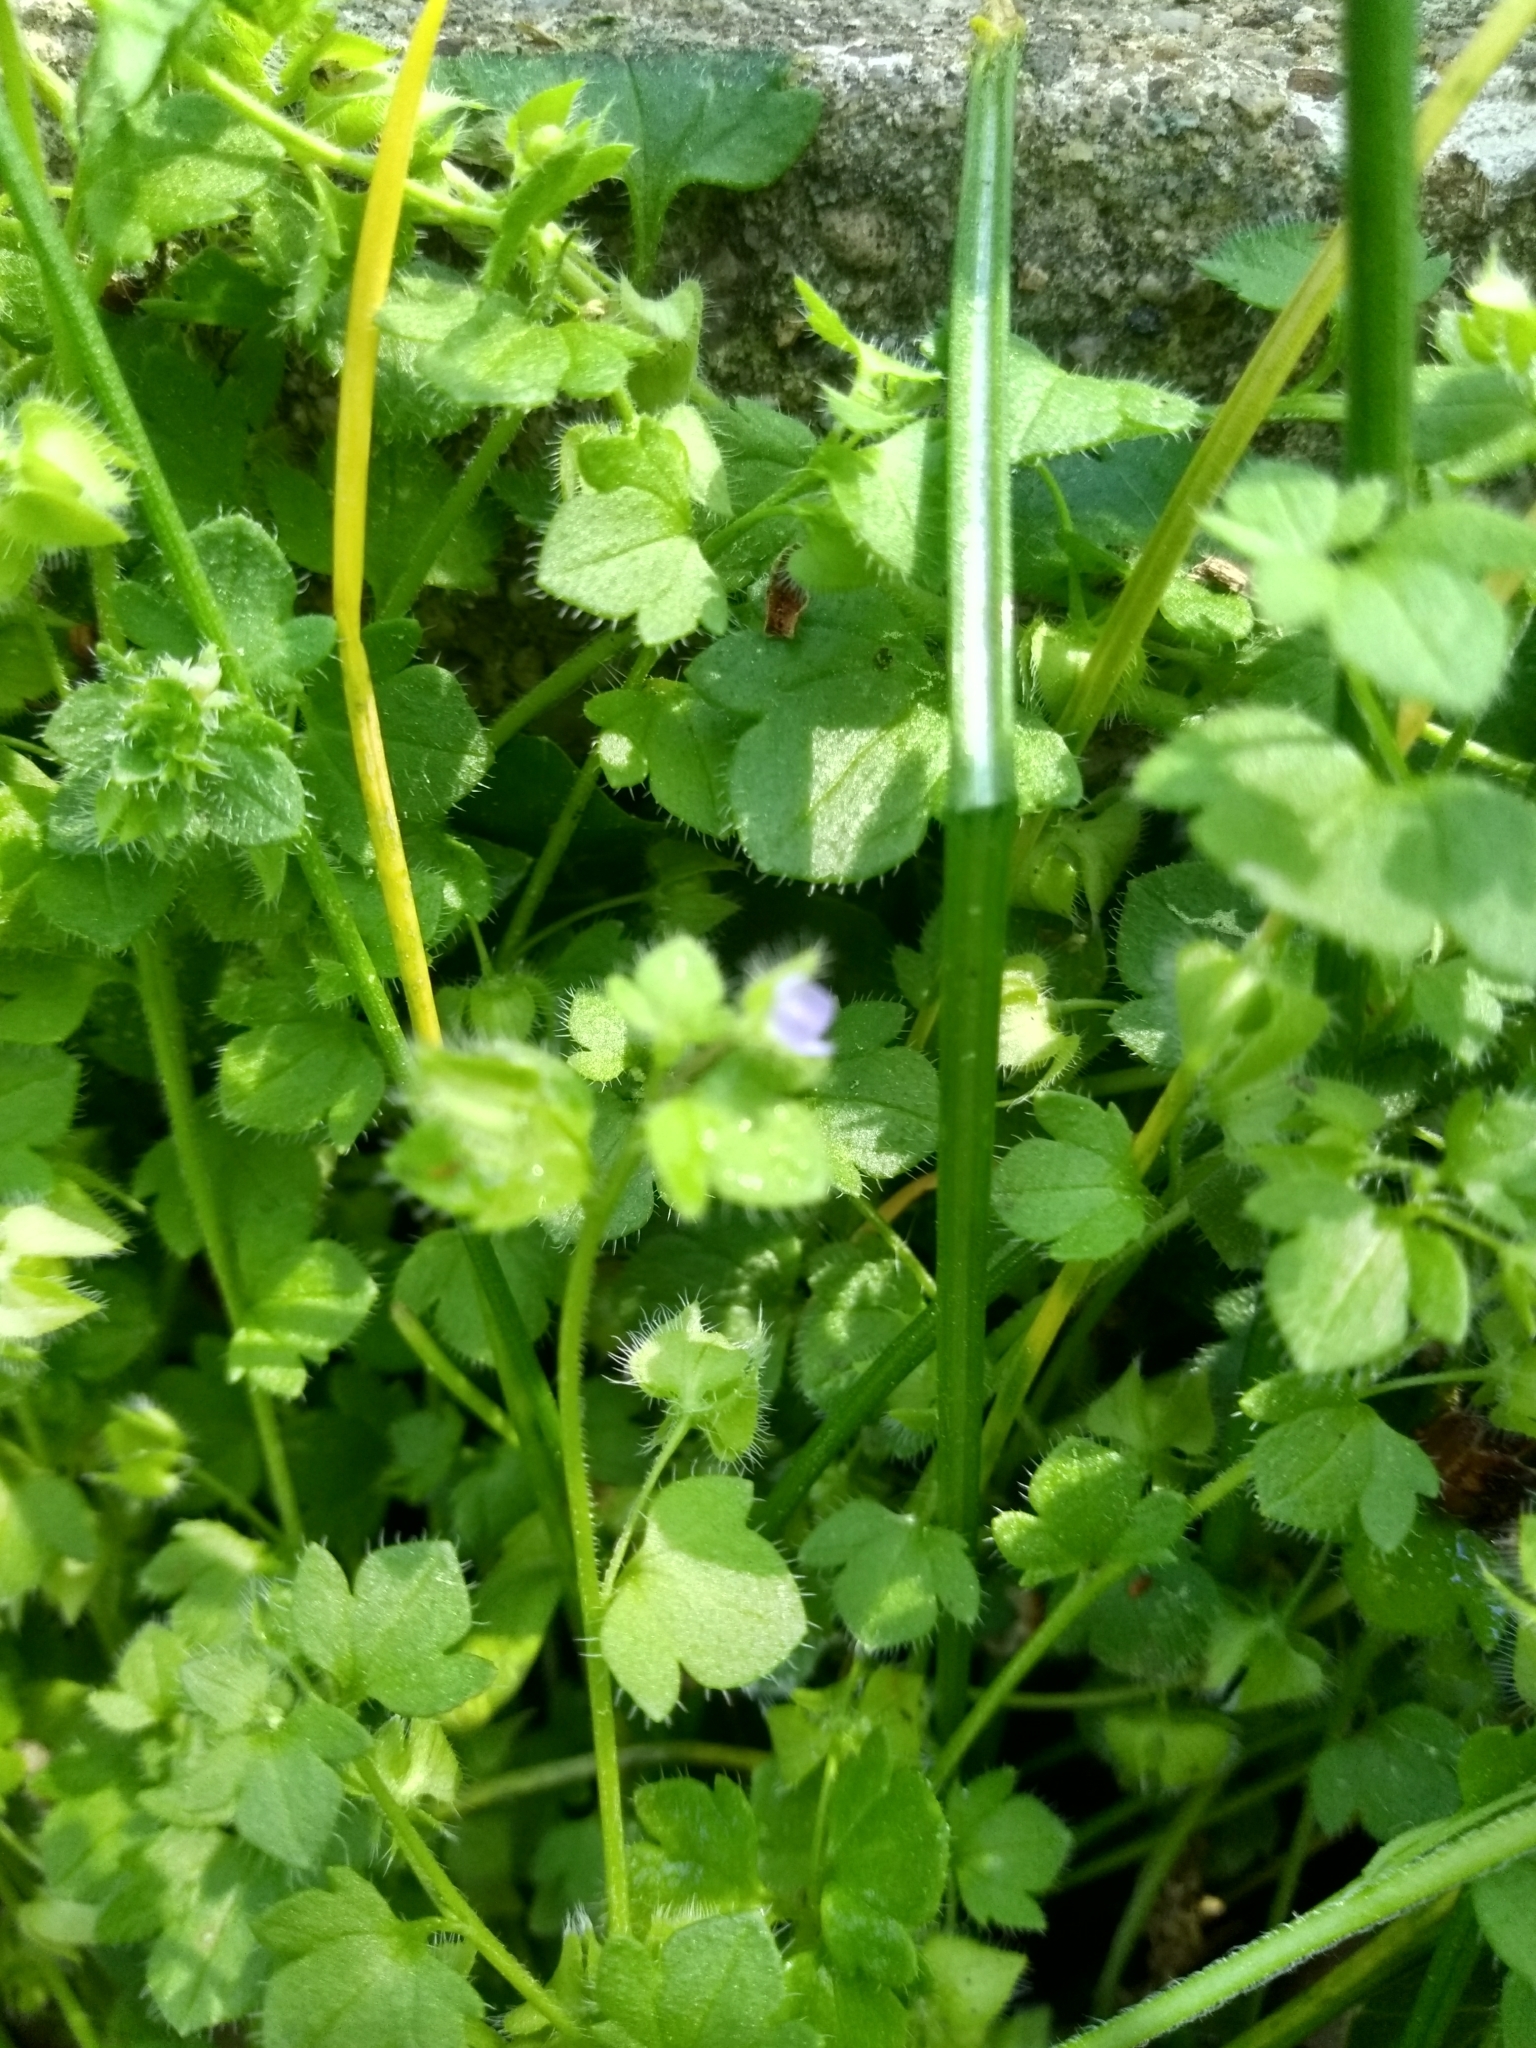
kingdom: Plantae
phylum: Tracheophyta
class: Magnoliopsida
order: Lamiales
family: Plantaginaceae
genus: Veronica
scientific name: Veronica hederifolia
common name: Ivy-leaved speedwell
